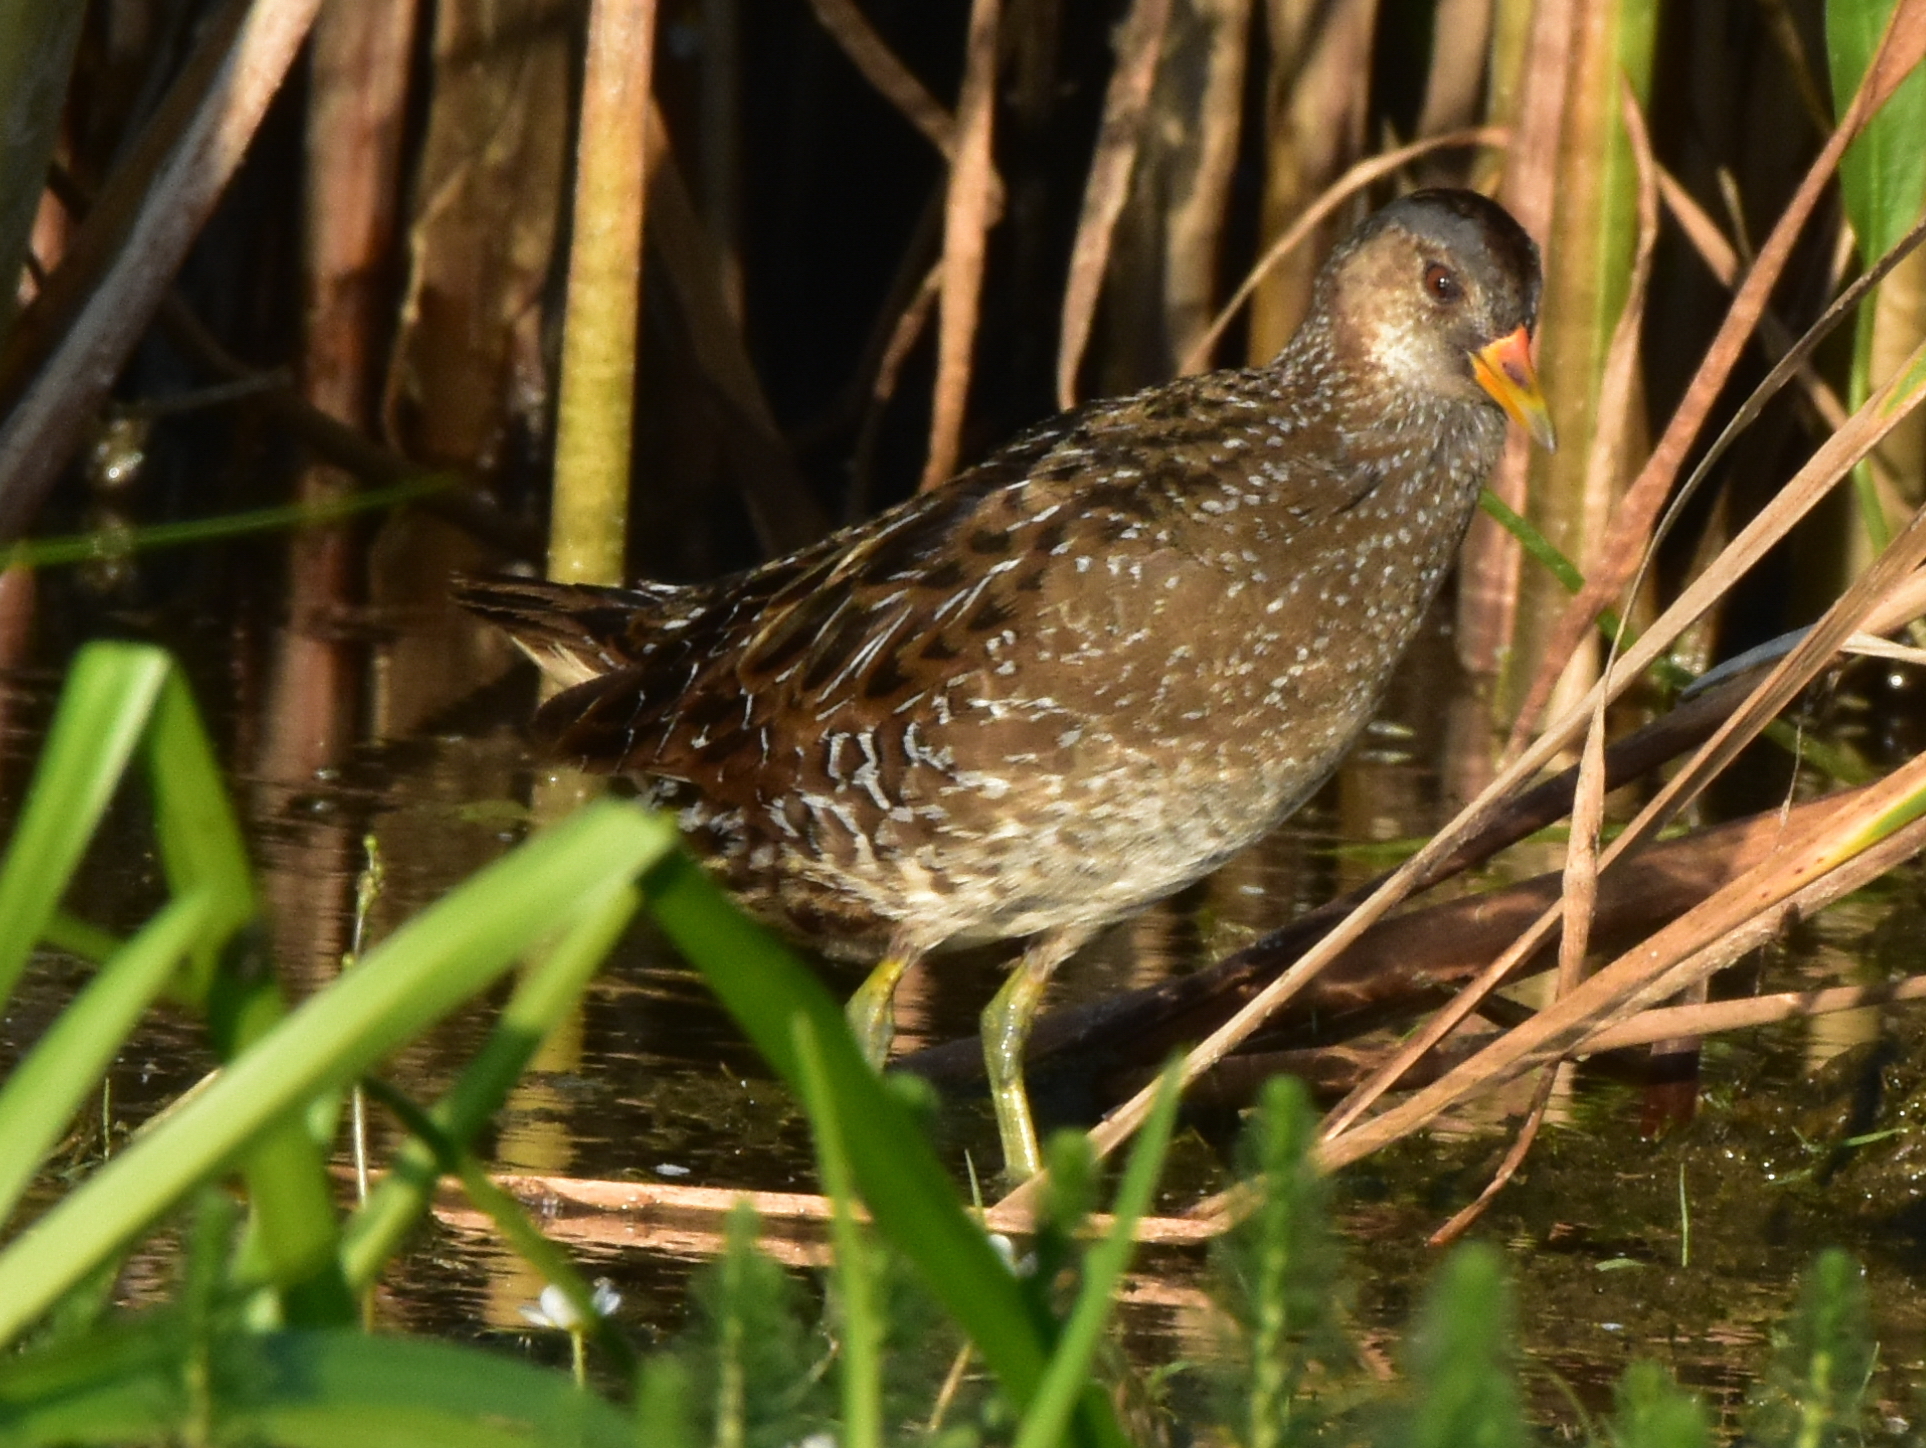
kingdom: Animalia
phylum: Chordata
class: Aves
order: Gruiformes
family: Rallidae
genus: Porzana
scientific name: Porzana porzana
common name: Spotted crake
